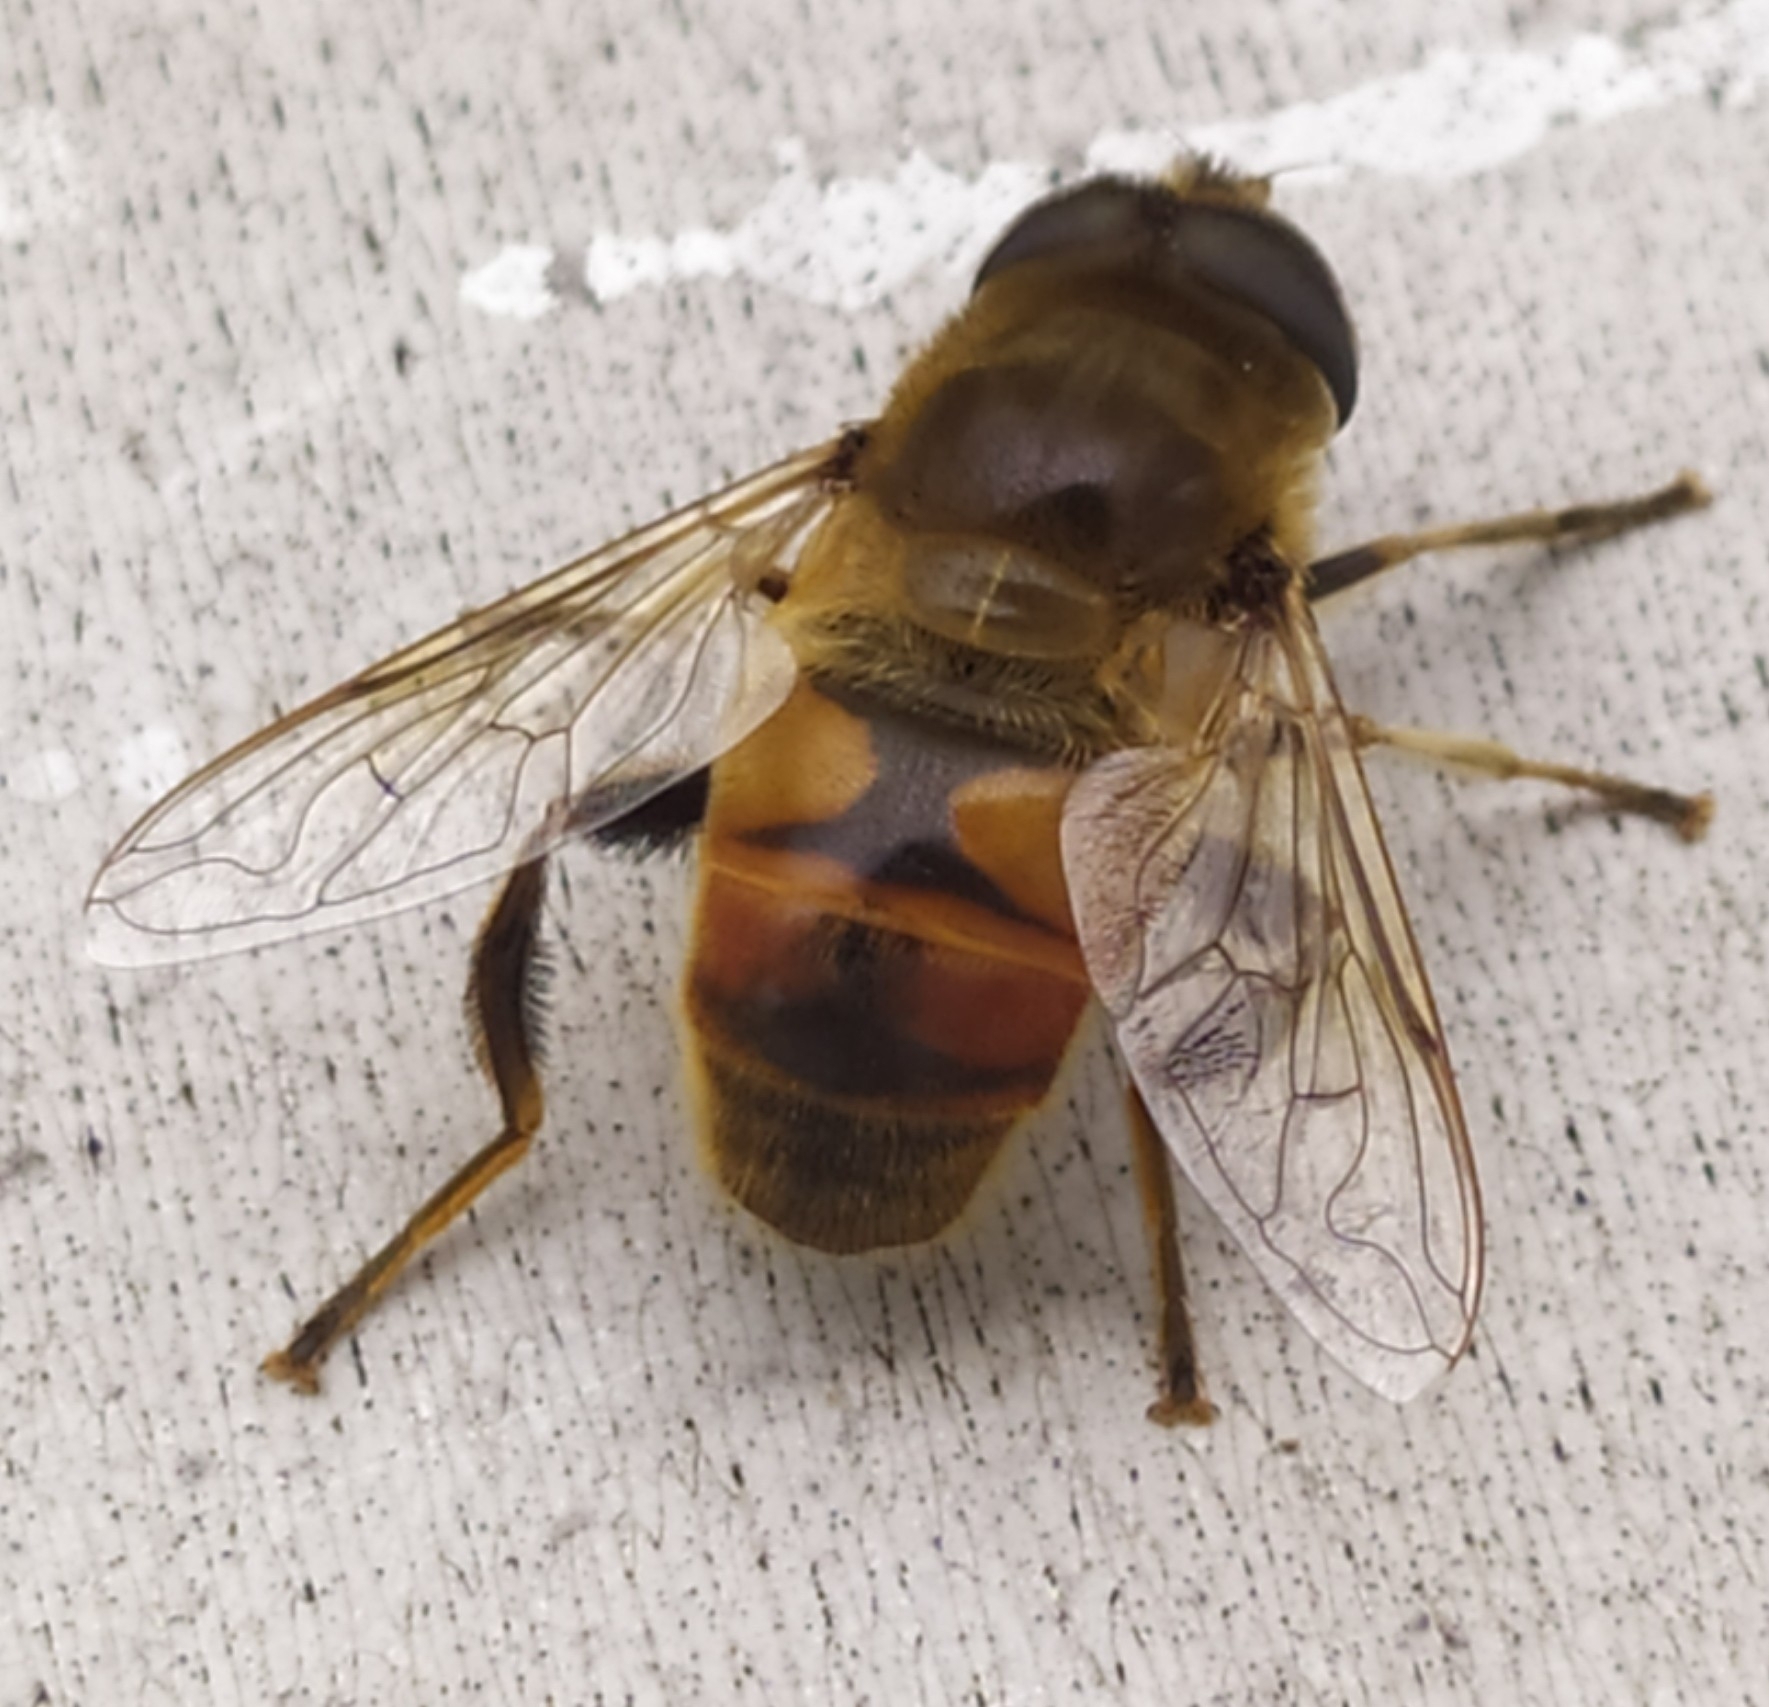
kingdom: Animalia
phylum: Arthropoda
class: Insecta
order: Diptera
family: Syrphidae
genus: Eristalis
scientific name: Eristalis tenax
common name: Drone fly
